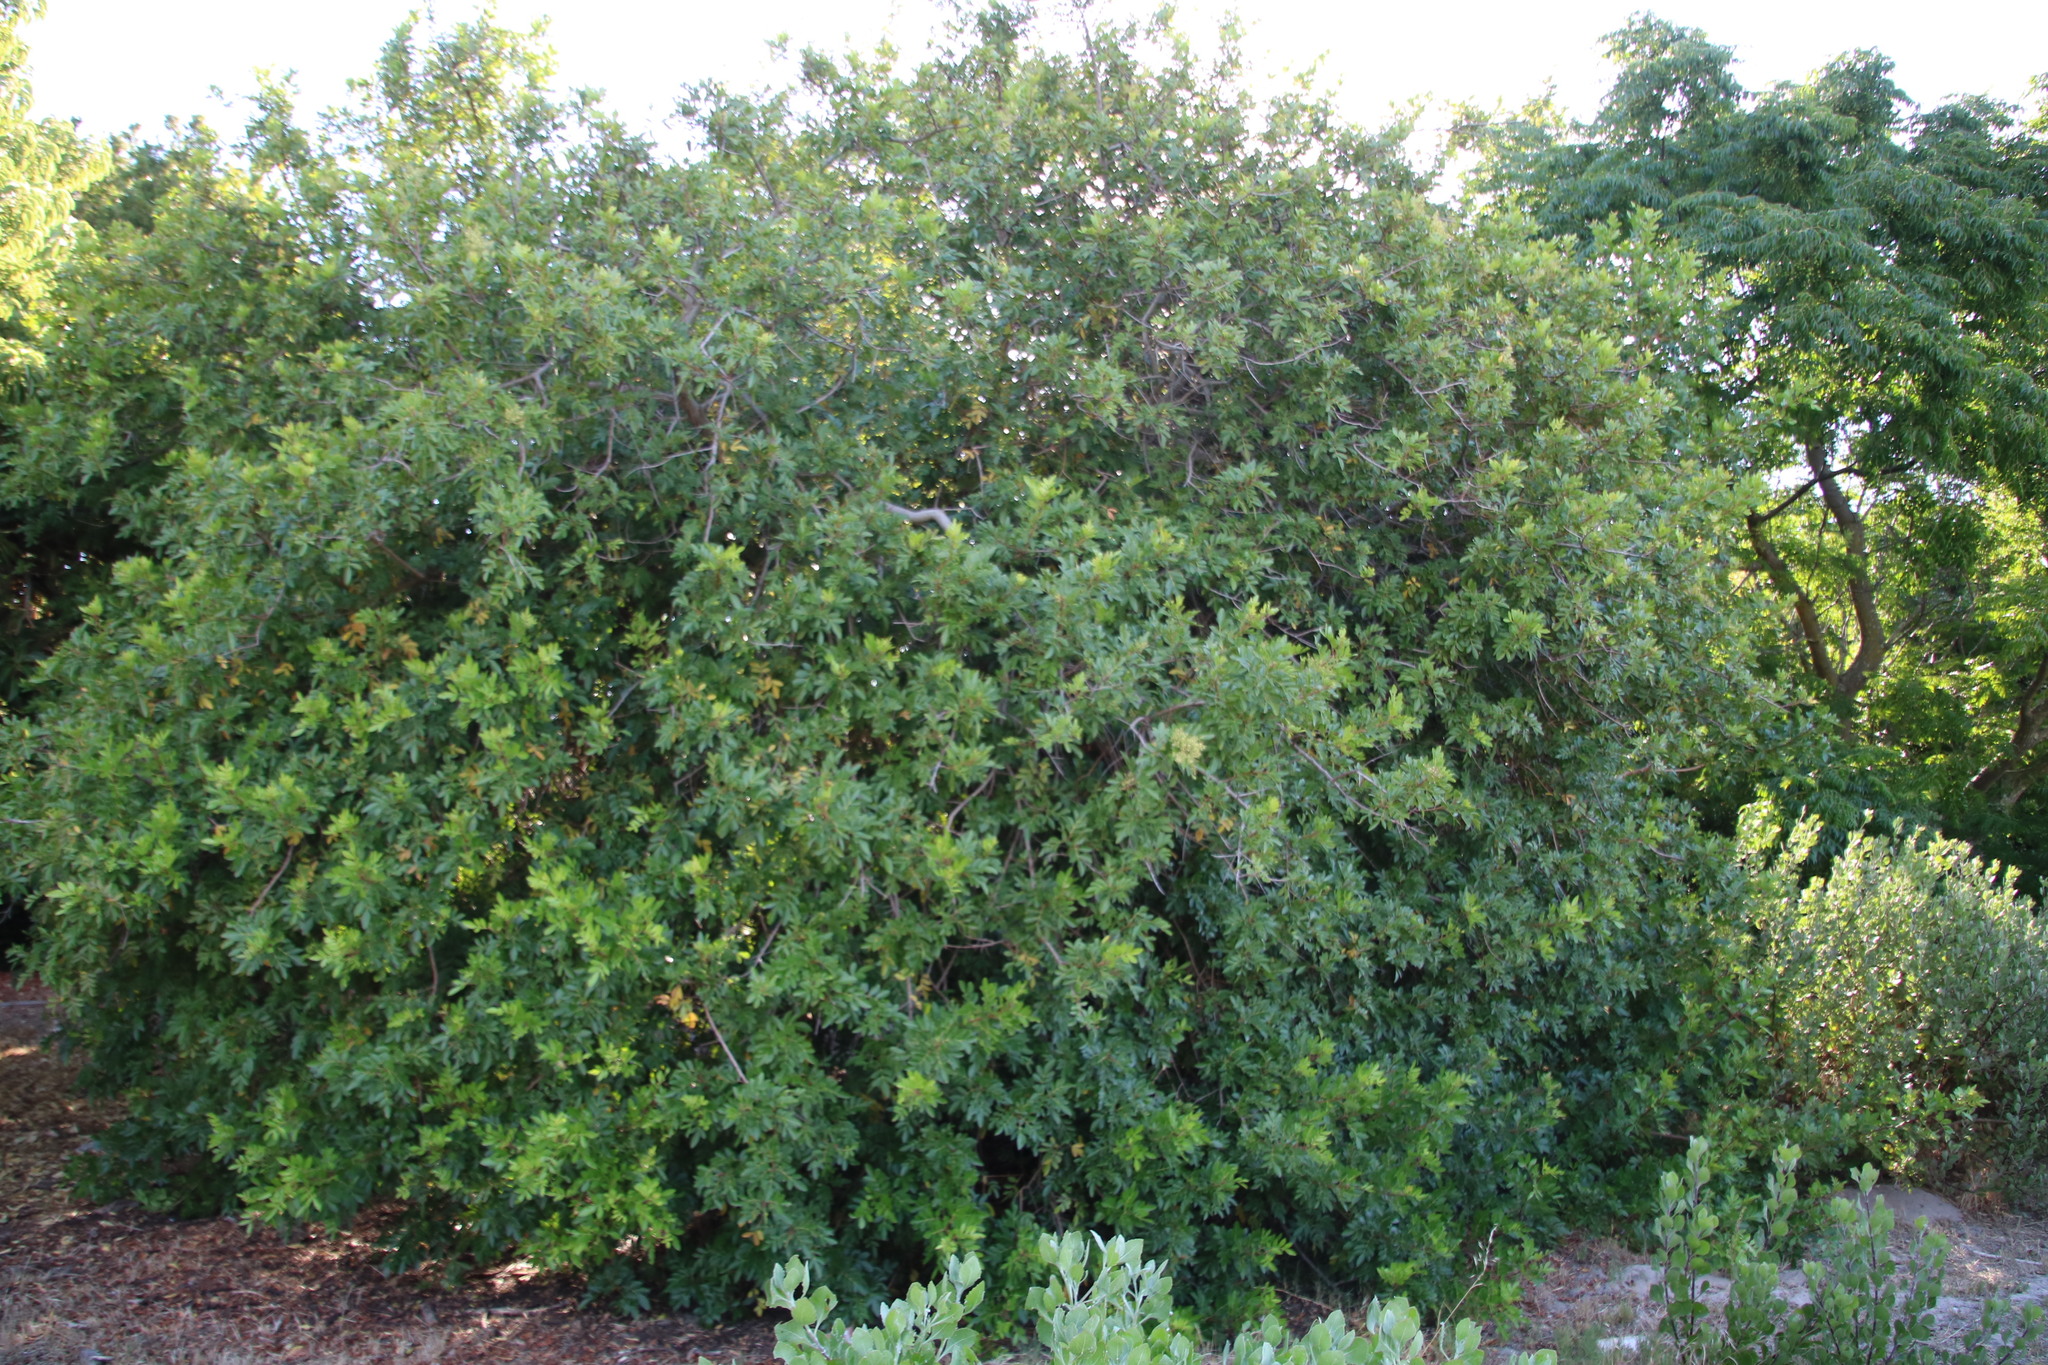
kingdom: Plantae
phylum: Tracheophyta
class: Magnoliopsida
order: Sapindales
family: Anacardiaceae
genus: Schinus
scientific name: Schinus terebinthifolia
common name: Brazilian peppertree
